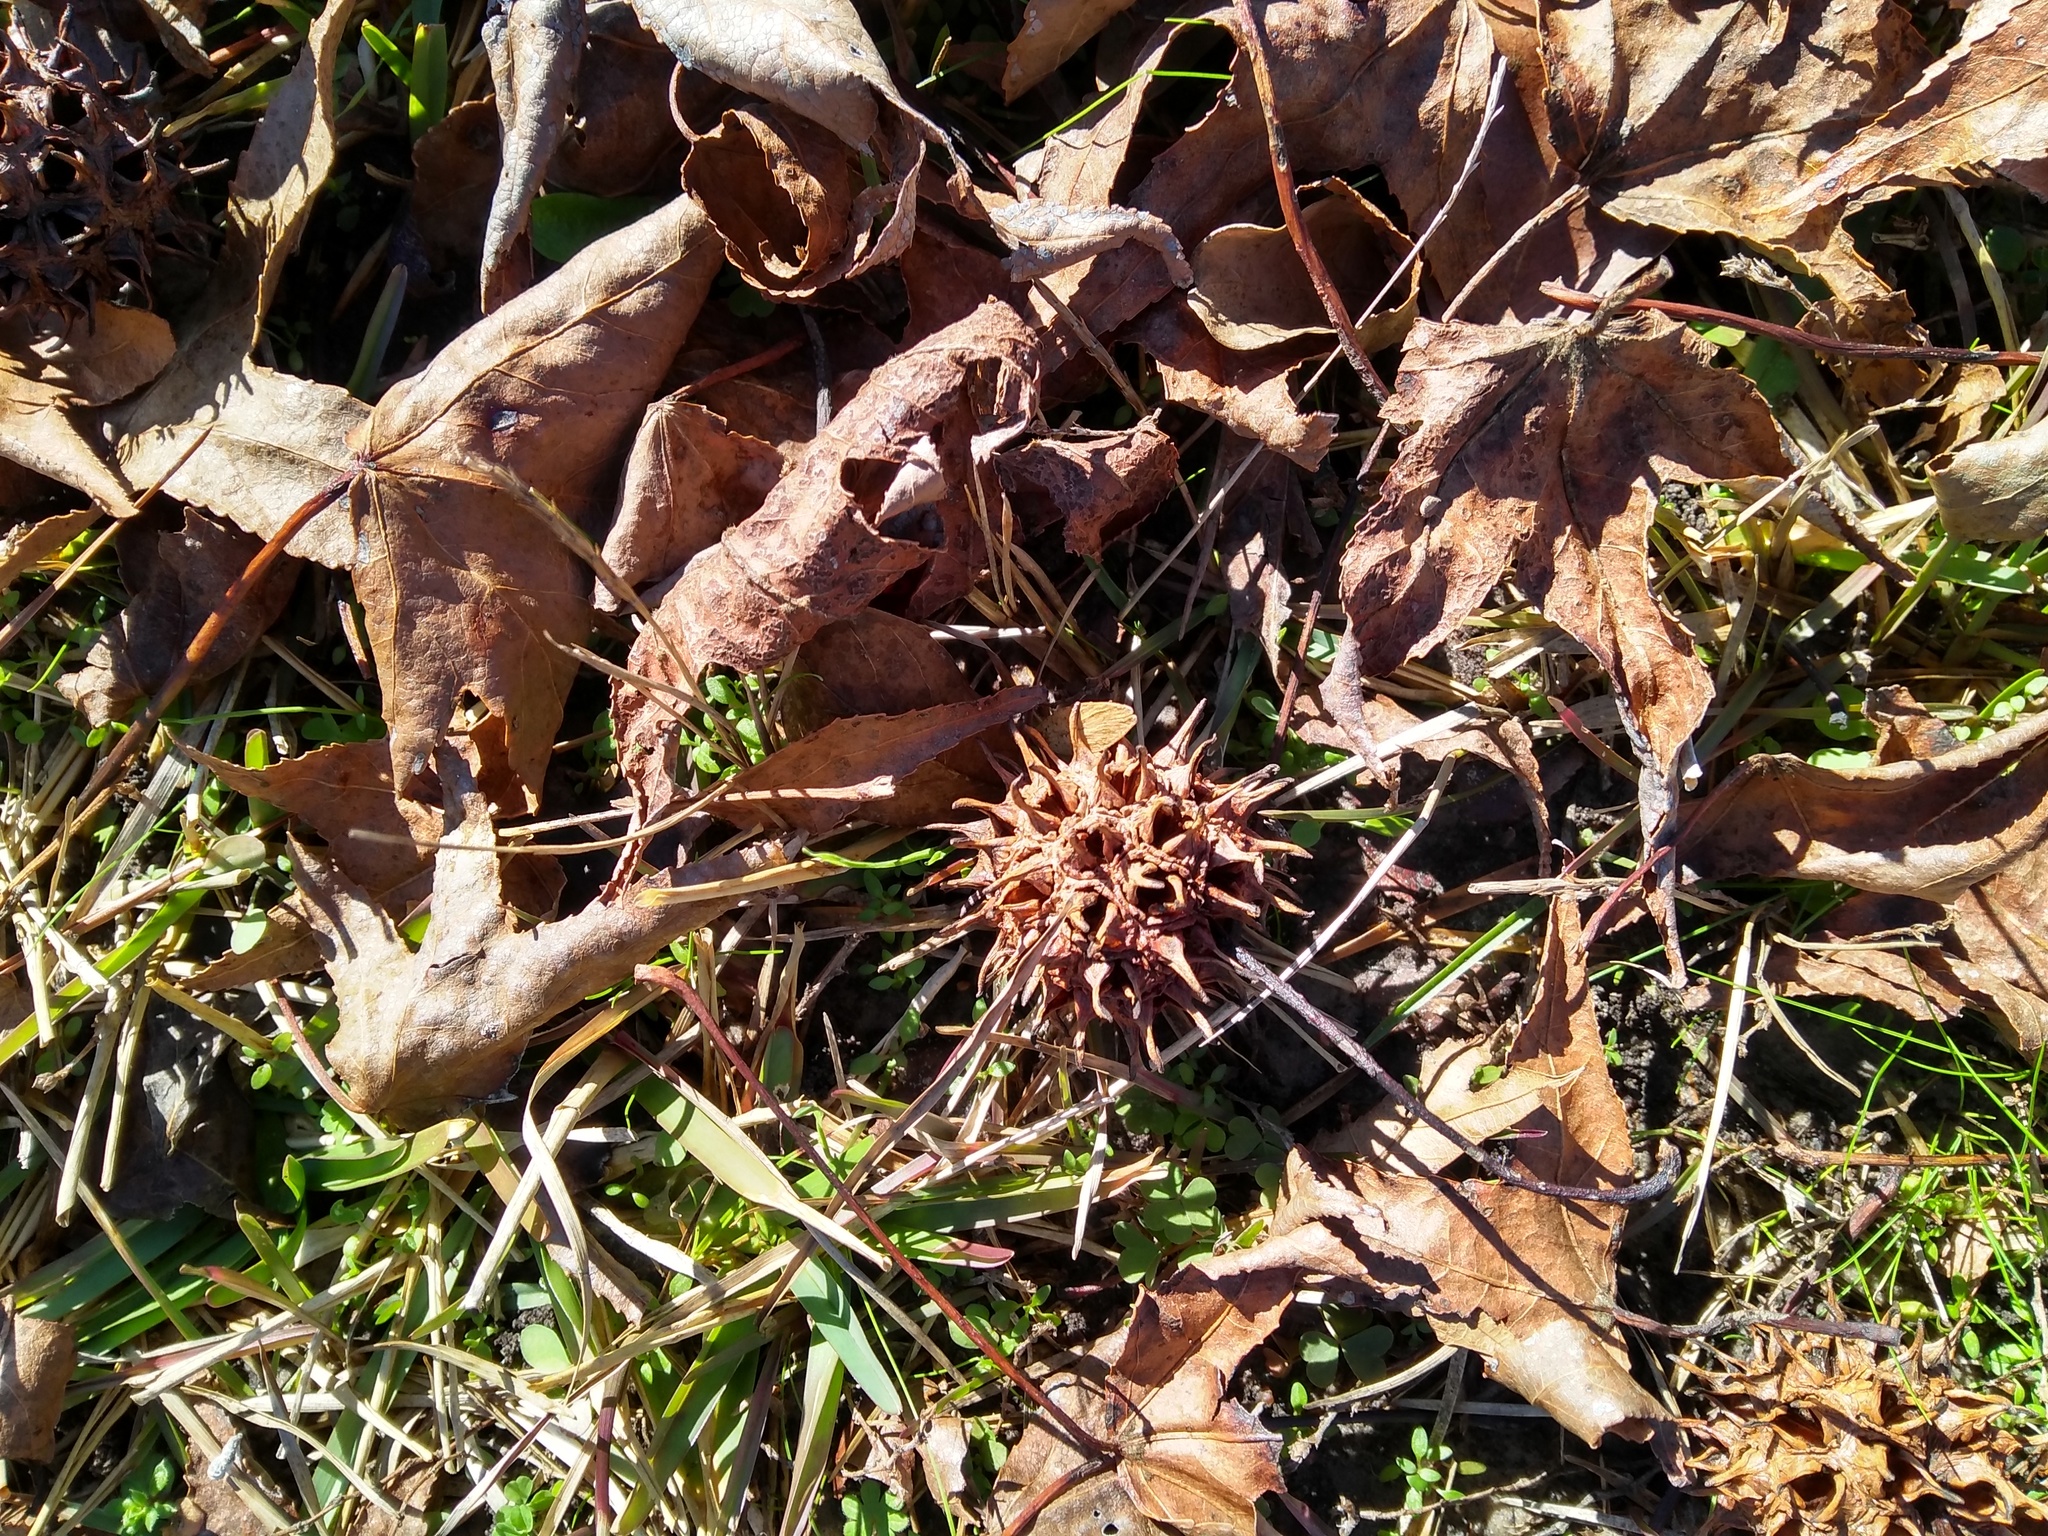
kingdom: Plantae
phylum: Tracheophyta
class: Magnoliopsida
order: Saxifragales
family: Altingiaceae
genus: Liquidambar
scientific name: Liquidambar styraciflua
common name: Sweet gum
